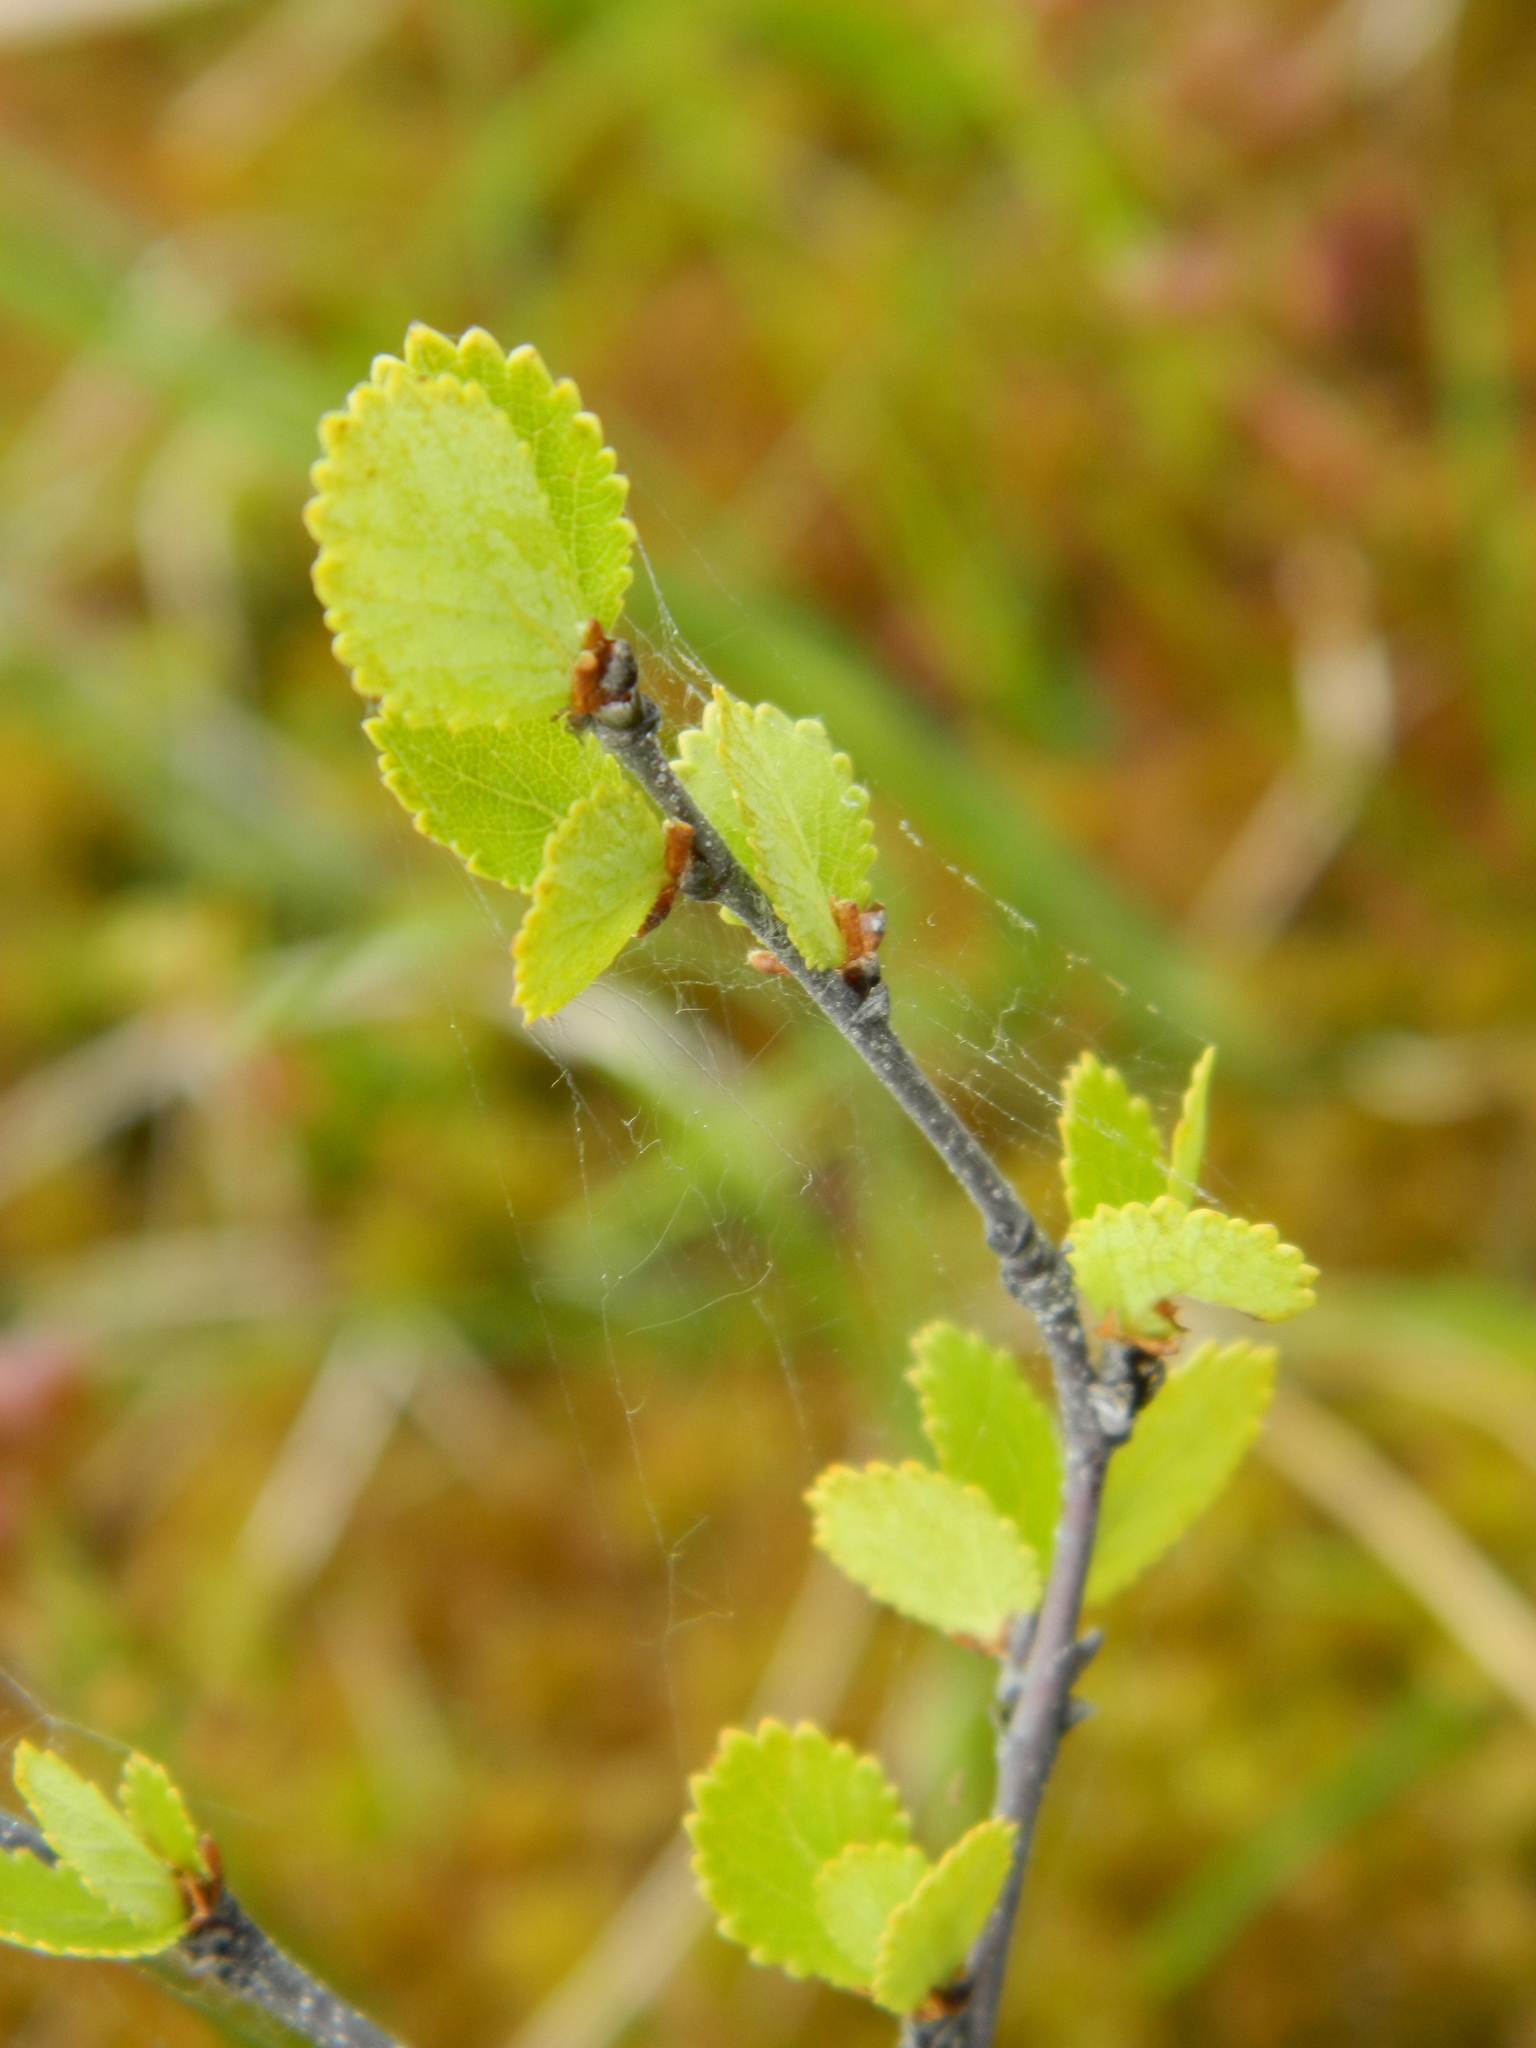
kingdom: Plantae
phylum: Tracheophyta
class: Magnoliopsida
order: Fagales
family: Betulaceae
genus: Betula
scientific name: Betula pumila
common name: Bog birch
